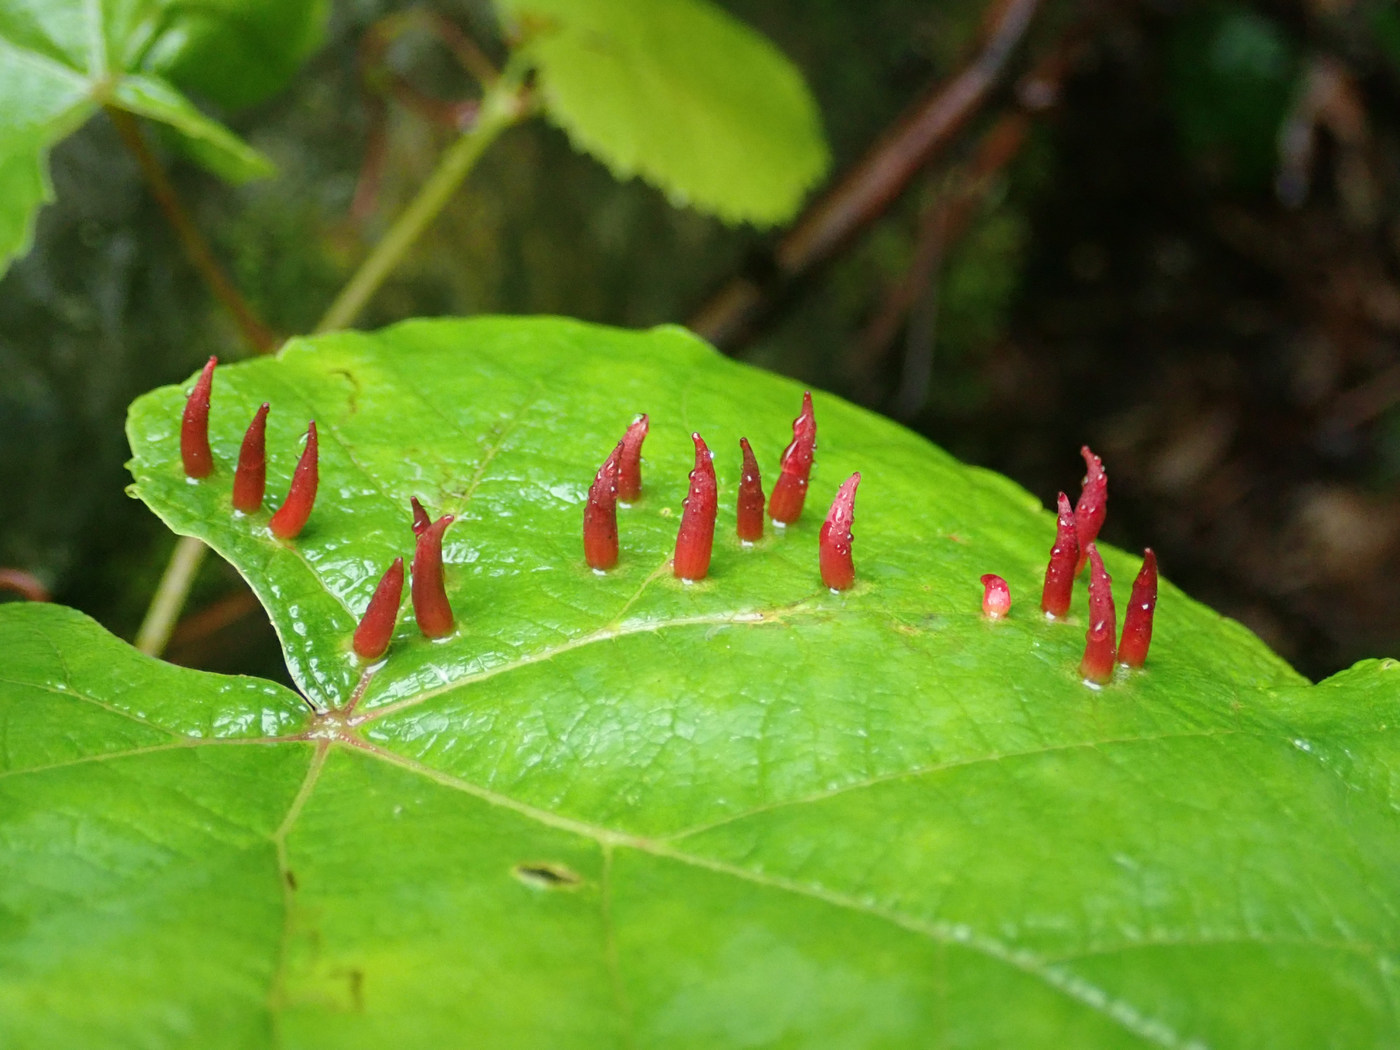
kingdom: Animalia
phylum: Arthropoda
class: Insecta
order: Diptera
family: Cecidomyiidae
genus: Ampelomyia
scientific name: Ampelomyia viticola
